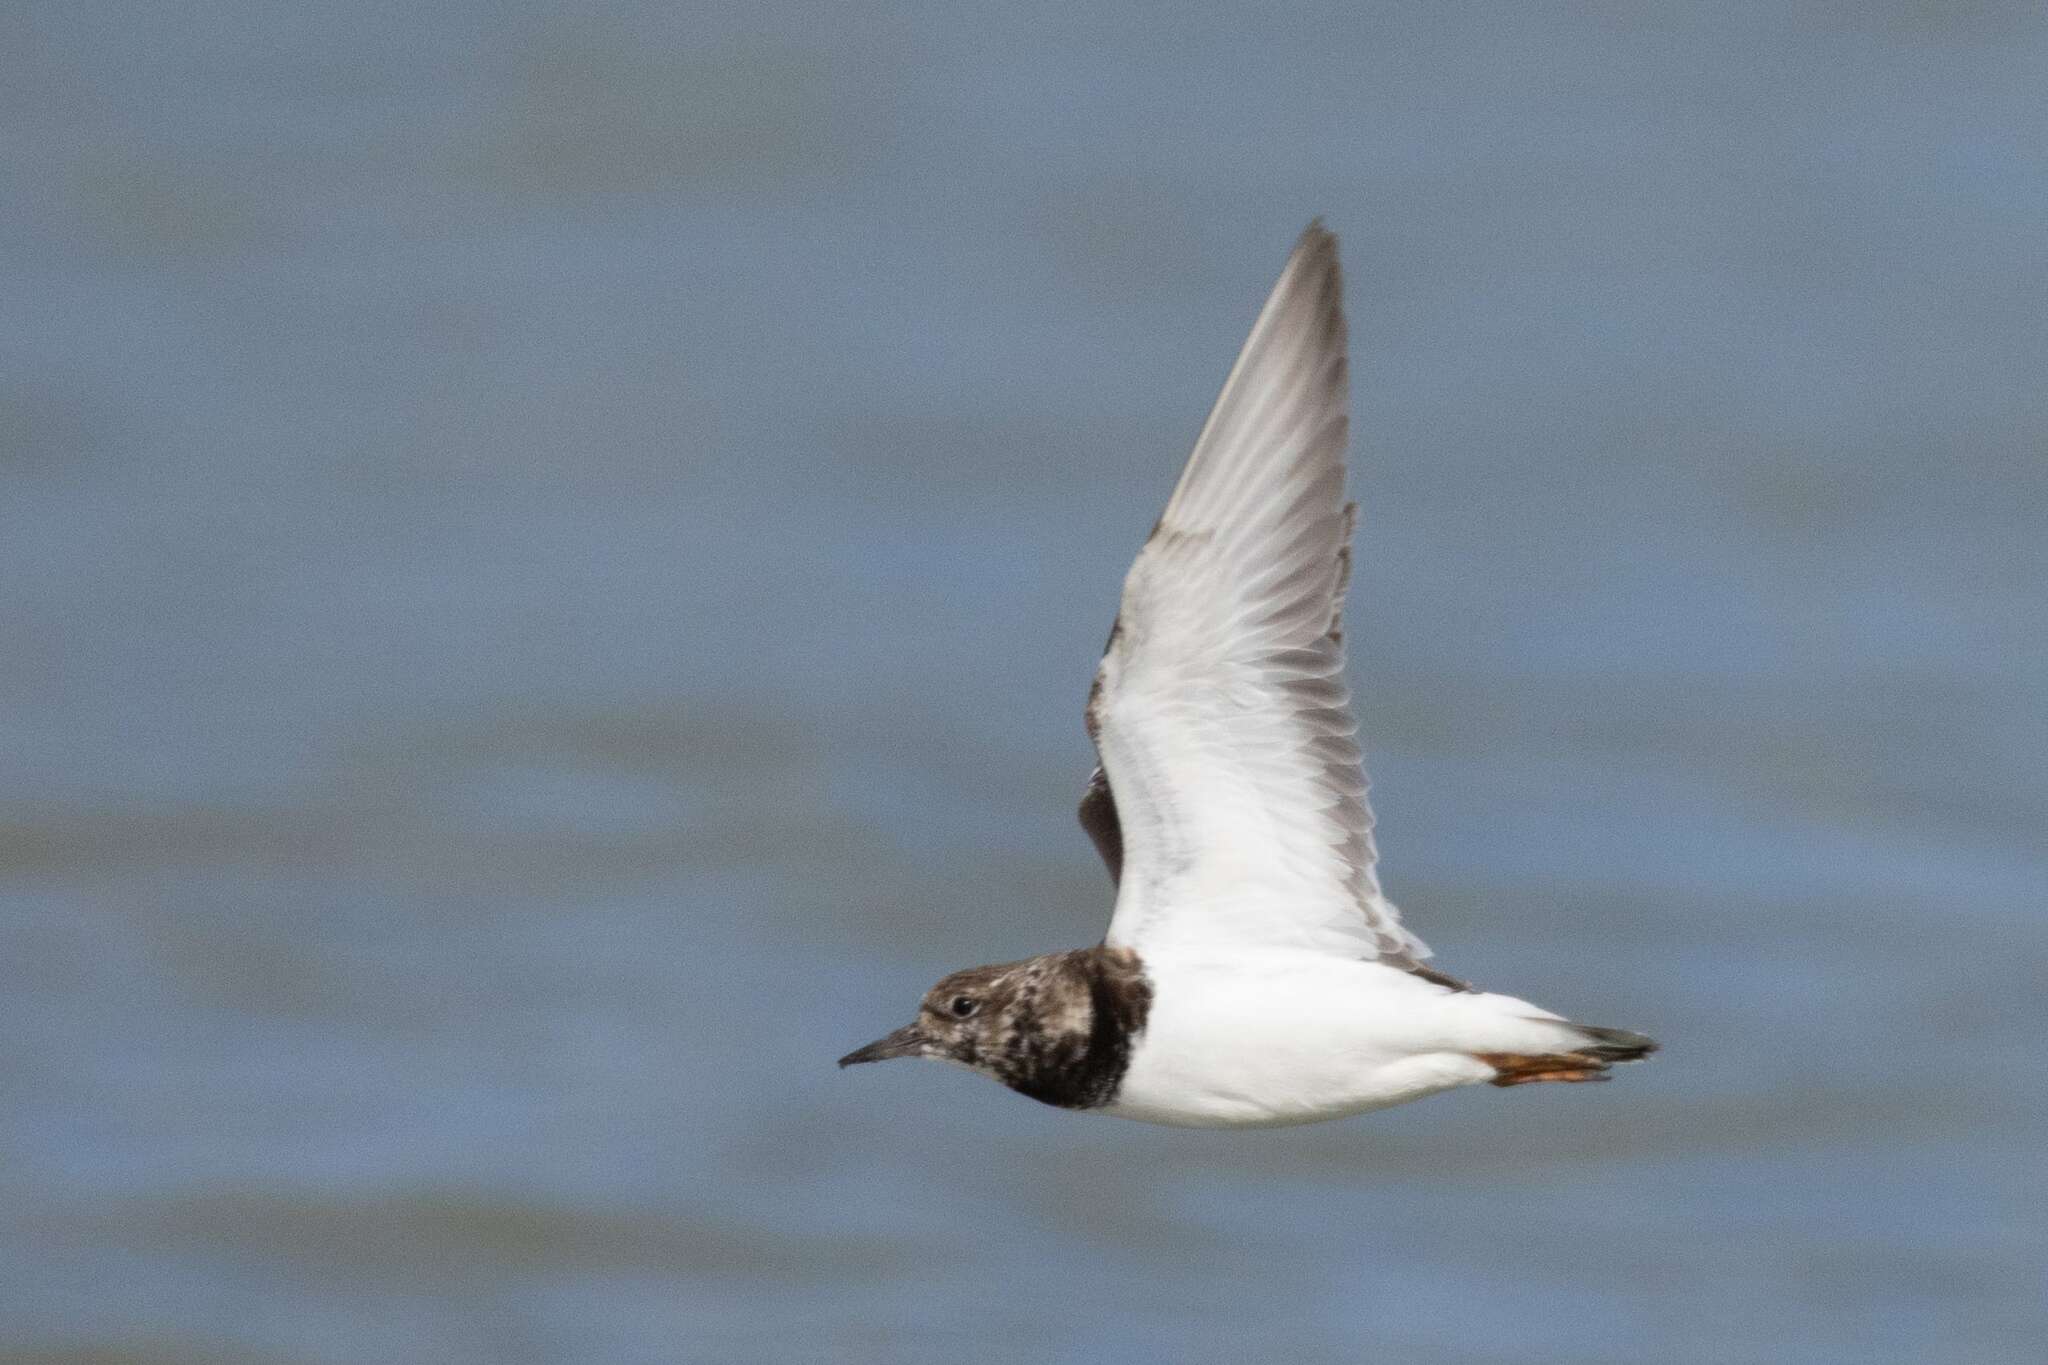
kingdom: Animalia
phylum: Chordata
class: Aves
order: Charadriiformes
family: Scolopacidae
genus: Arenaria
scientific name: Arenaria interpres
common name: Ruddy turnstone
